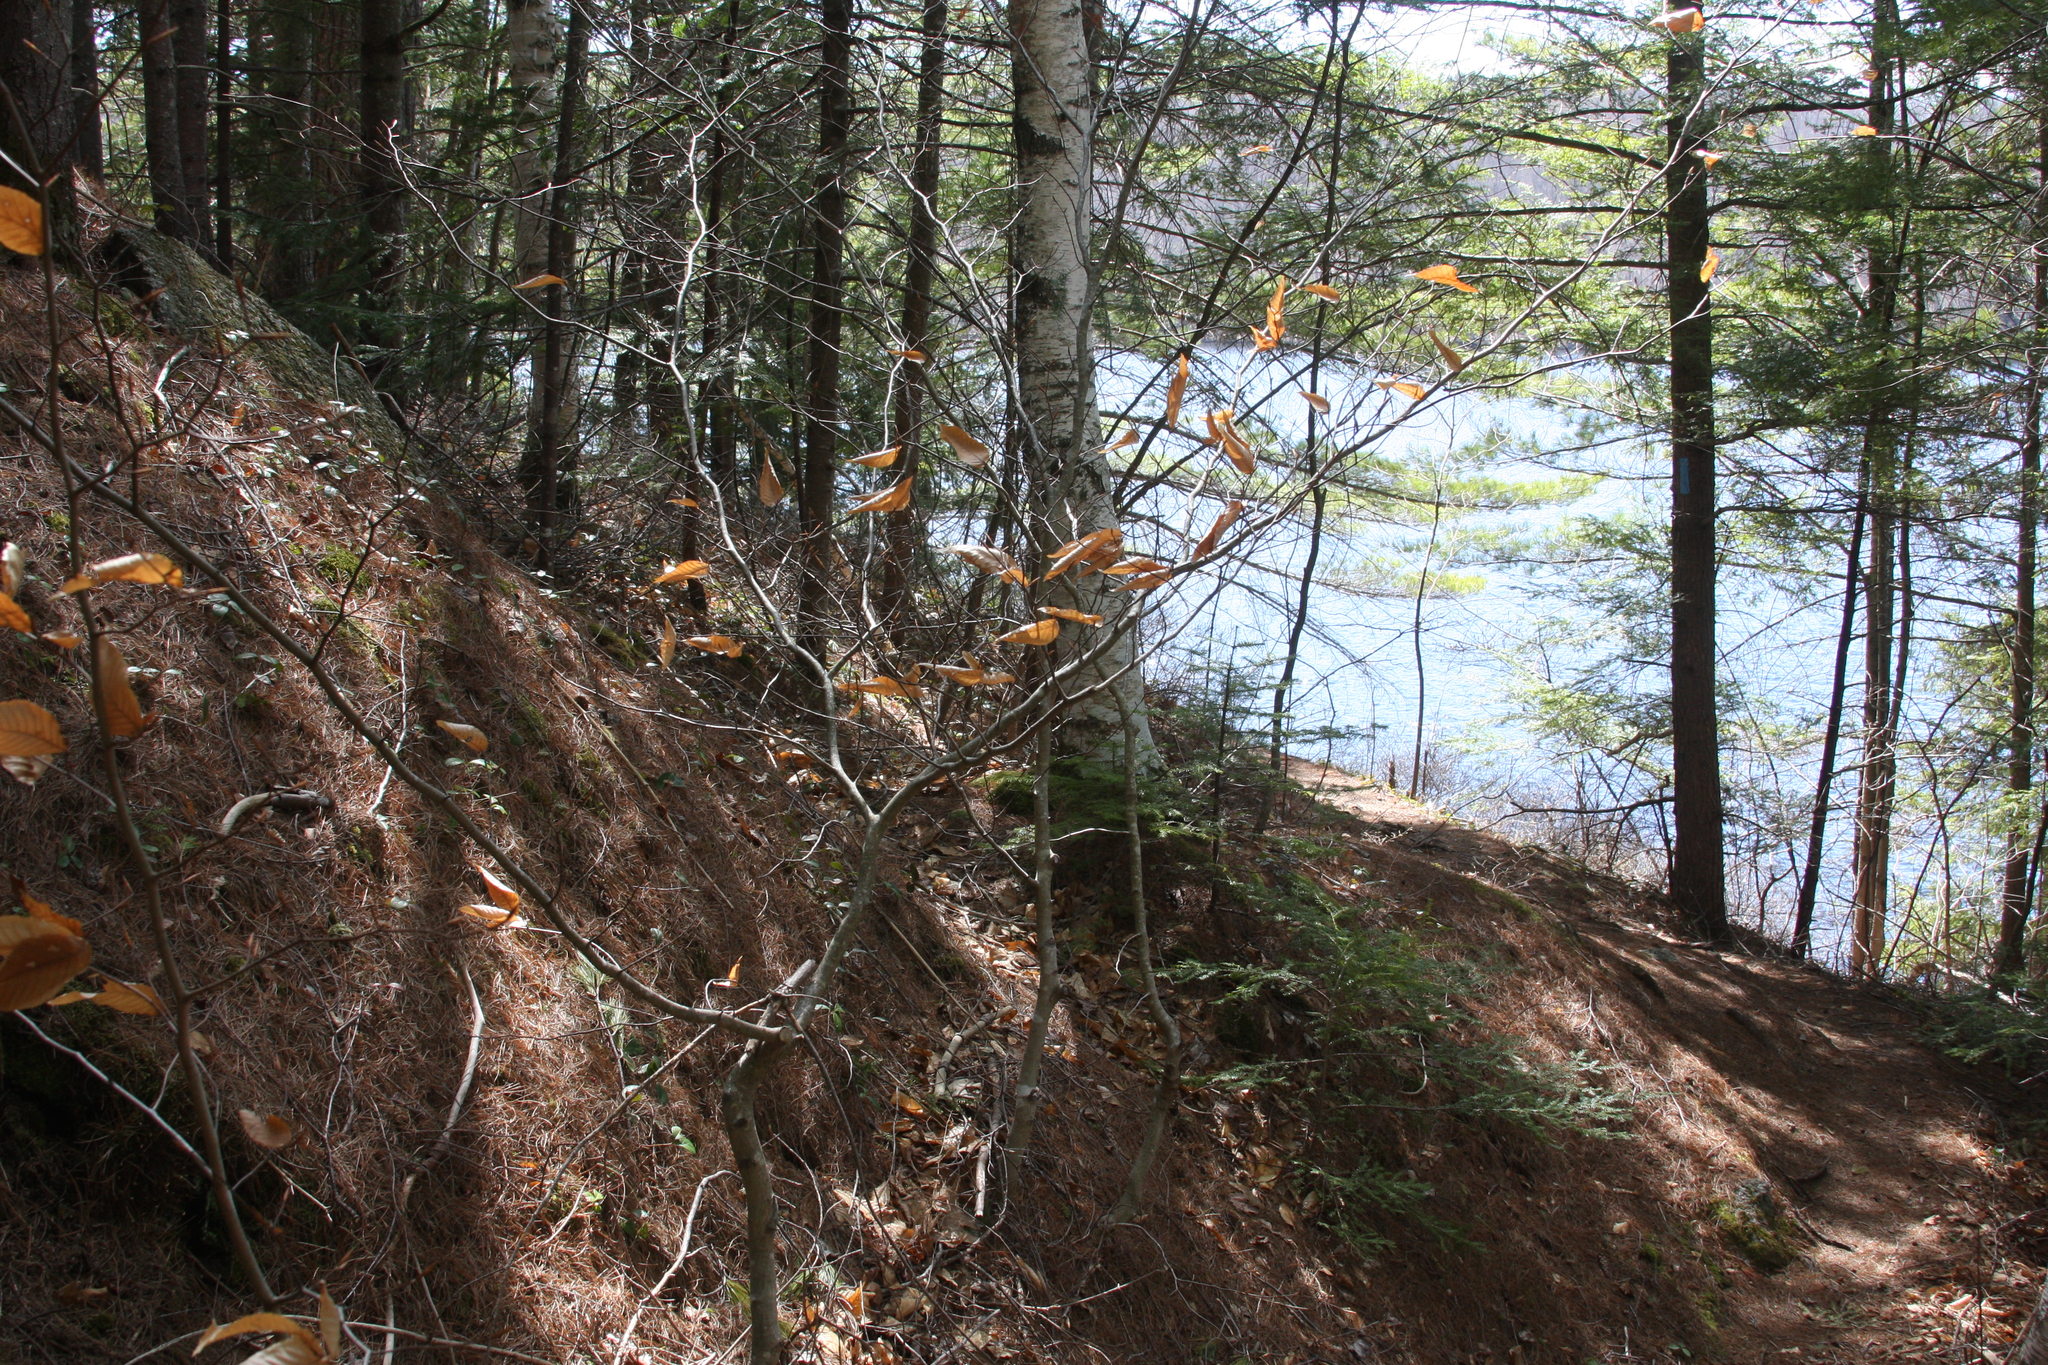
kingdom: Plantae
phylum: Tracheophyta
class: Magnoliopsida
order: Fagales
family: Fagaceae
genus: Fagus
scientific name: Fagus grandifolia
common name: American beech
